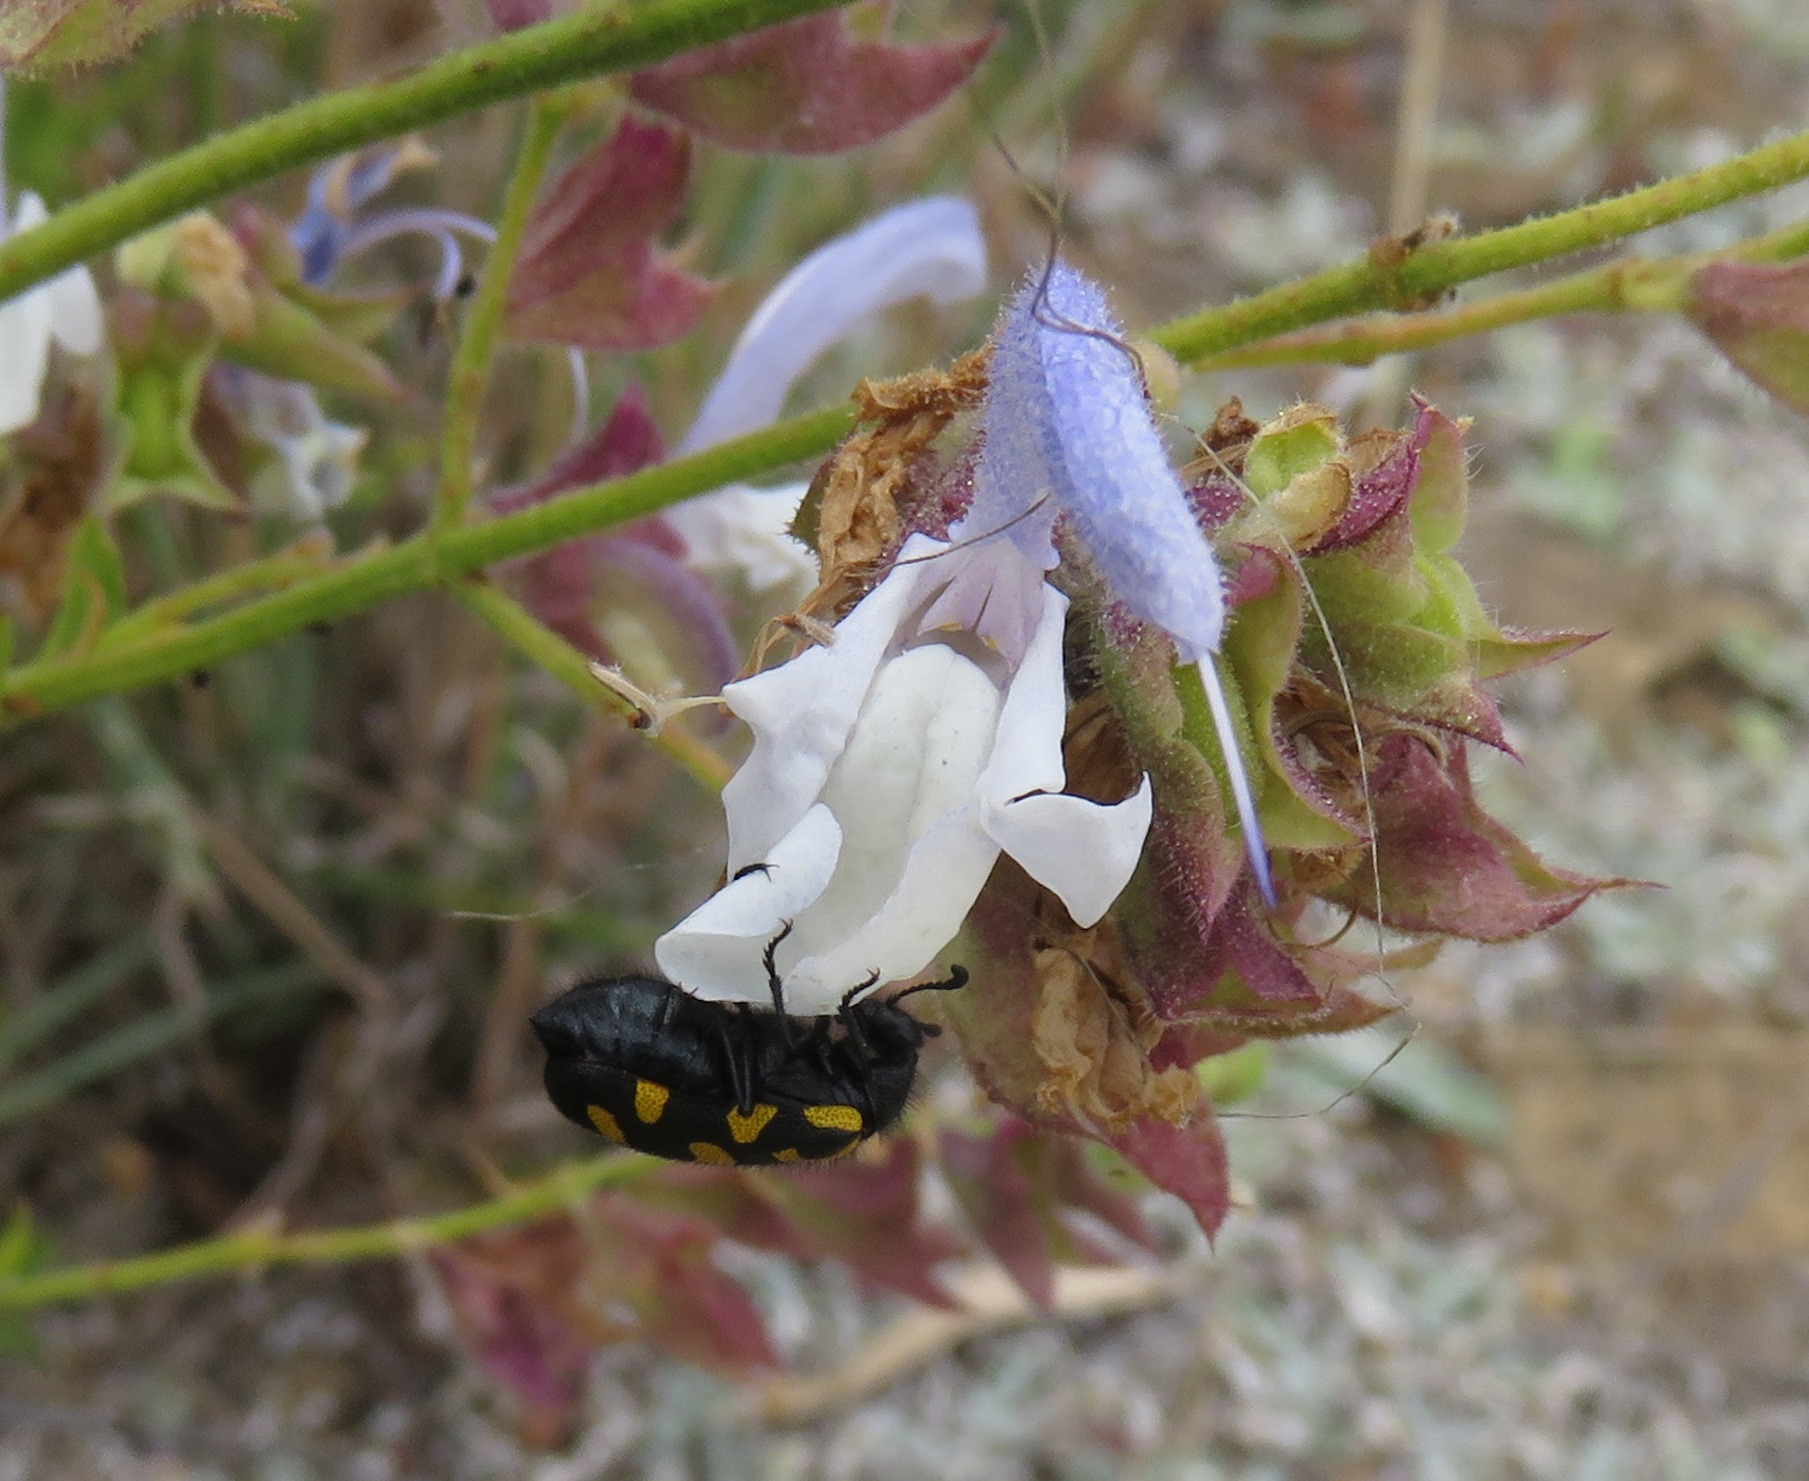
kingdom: Animalia
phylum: Arthropoda
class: Insecta
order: Coleoptera
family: Meloidae
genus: Ceroctis
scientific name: Ceroctis capensis
